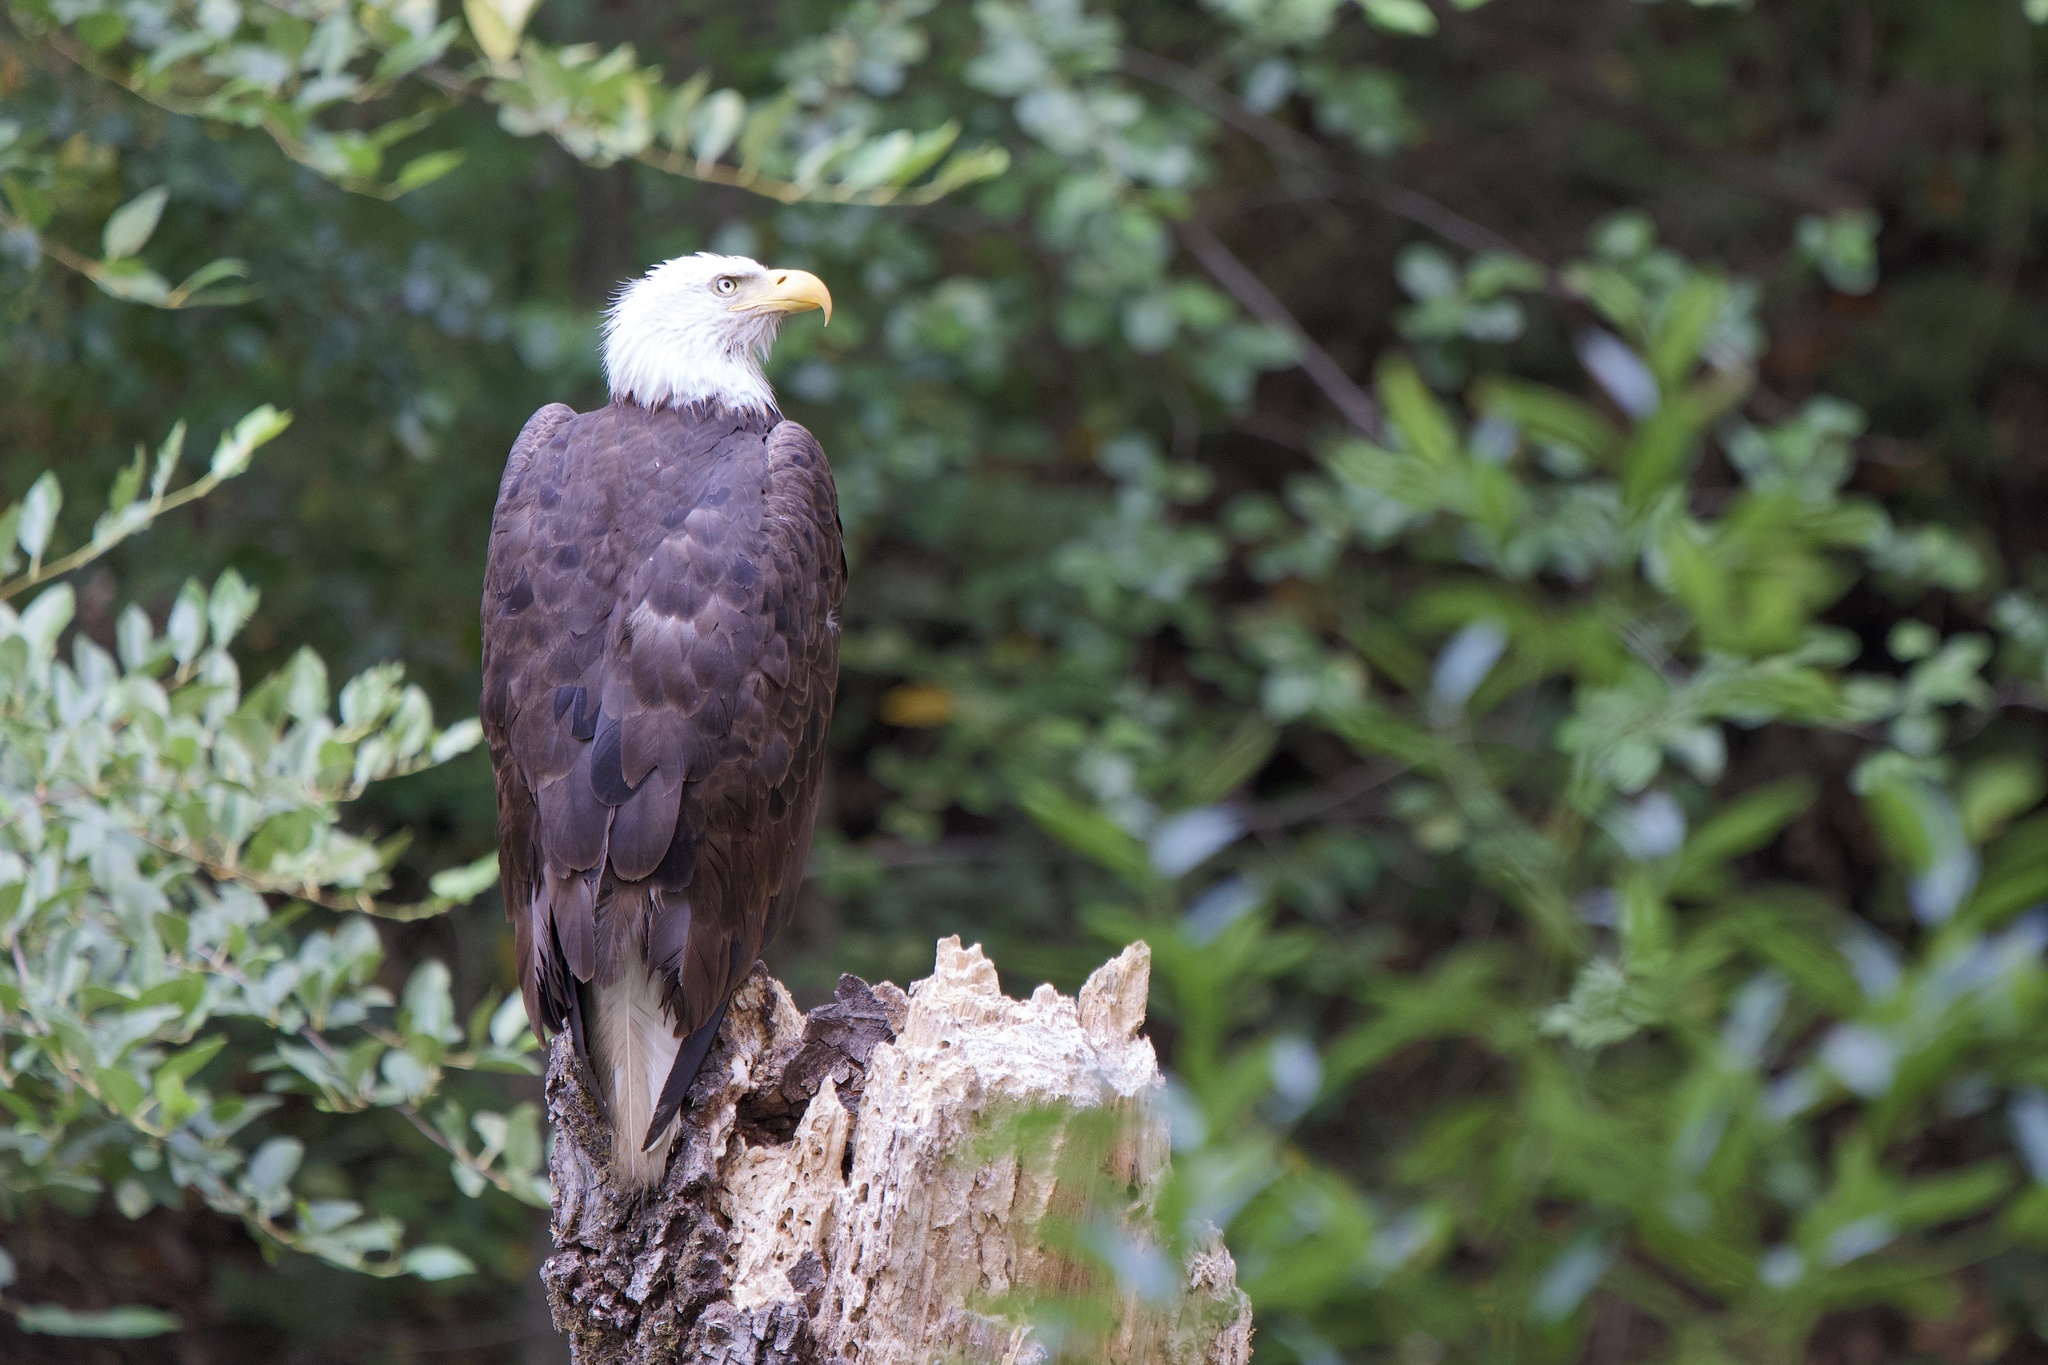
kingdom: Animalia
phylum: Chordata
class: Aves
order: Accipitriformes
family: Accipitridae
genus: Haliaeetus
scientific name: Haliaeetus leucocephalus
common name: Bald eagle
